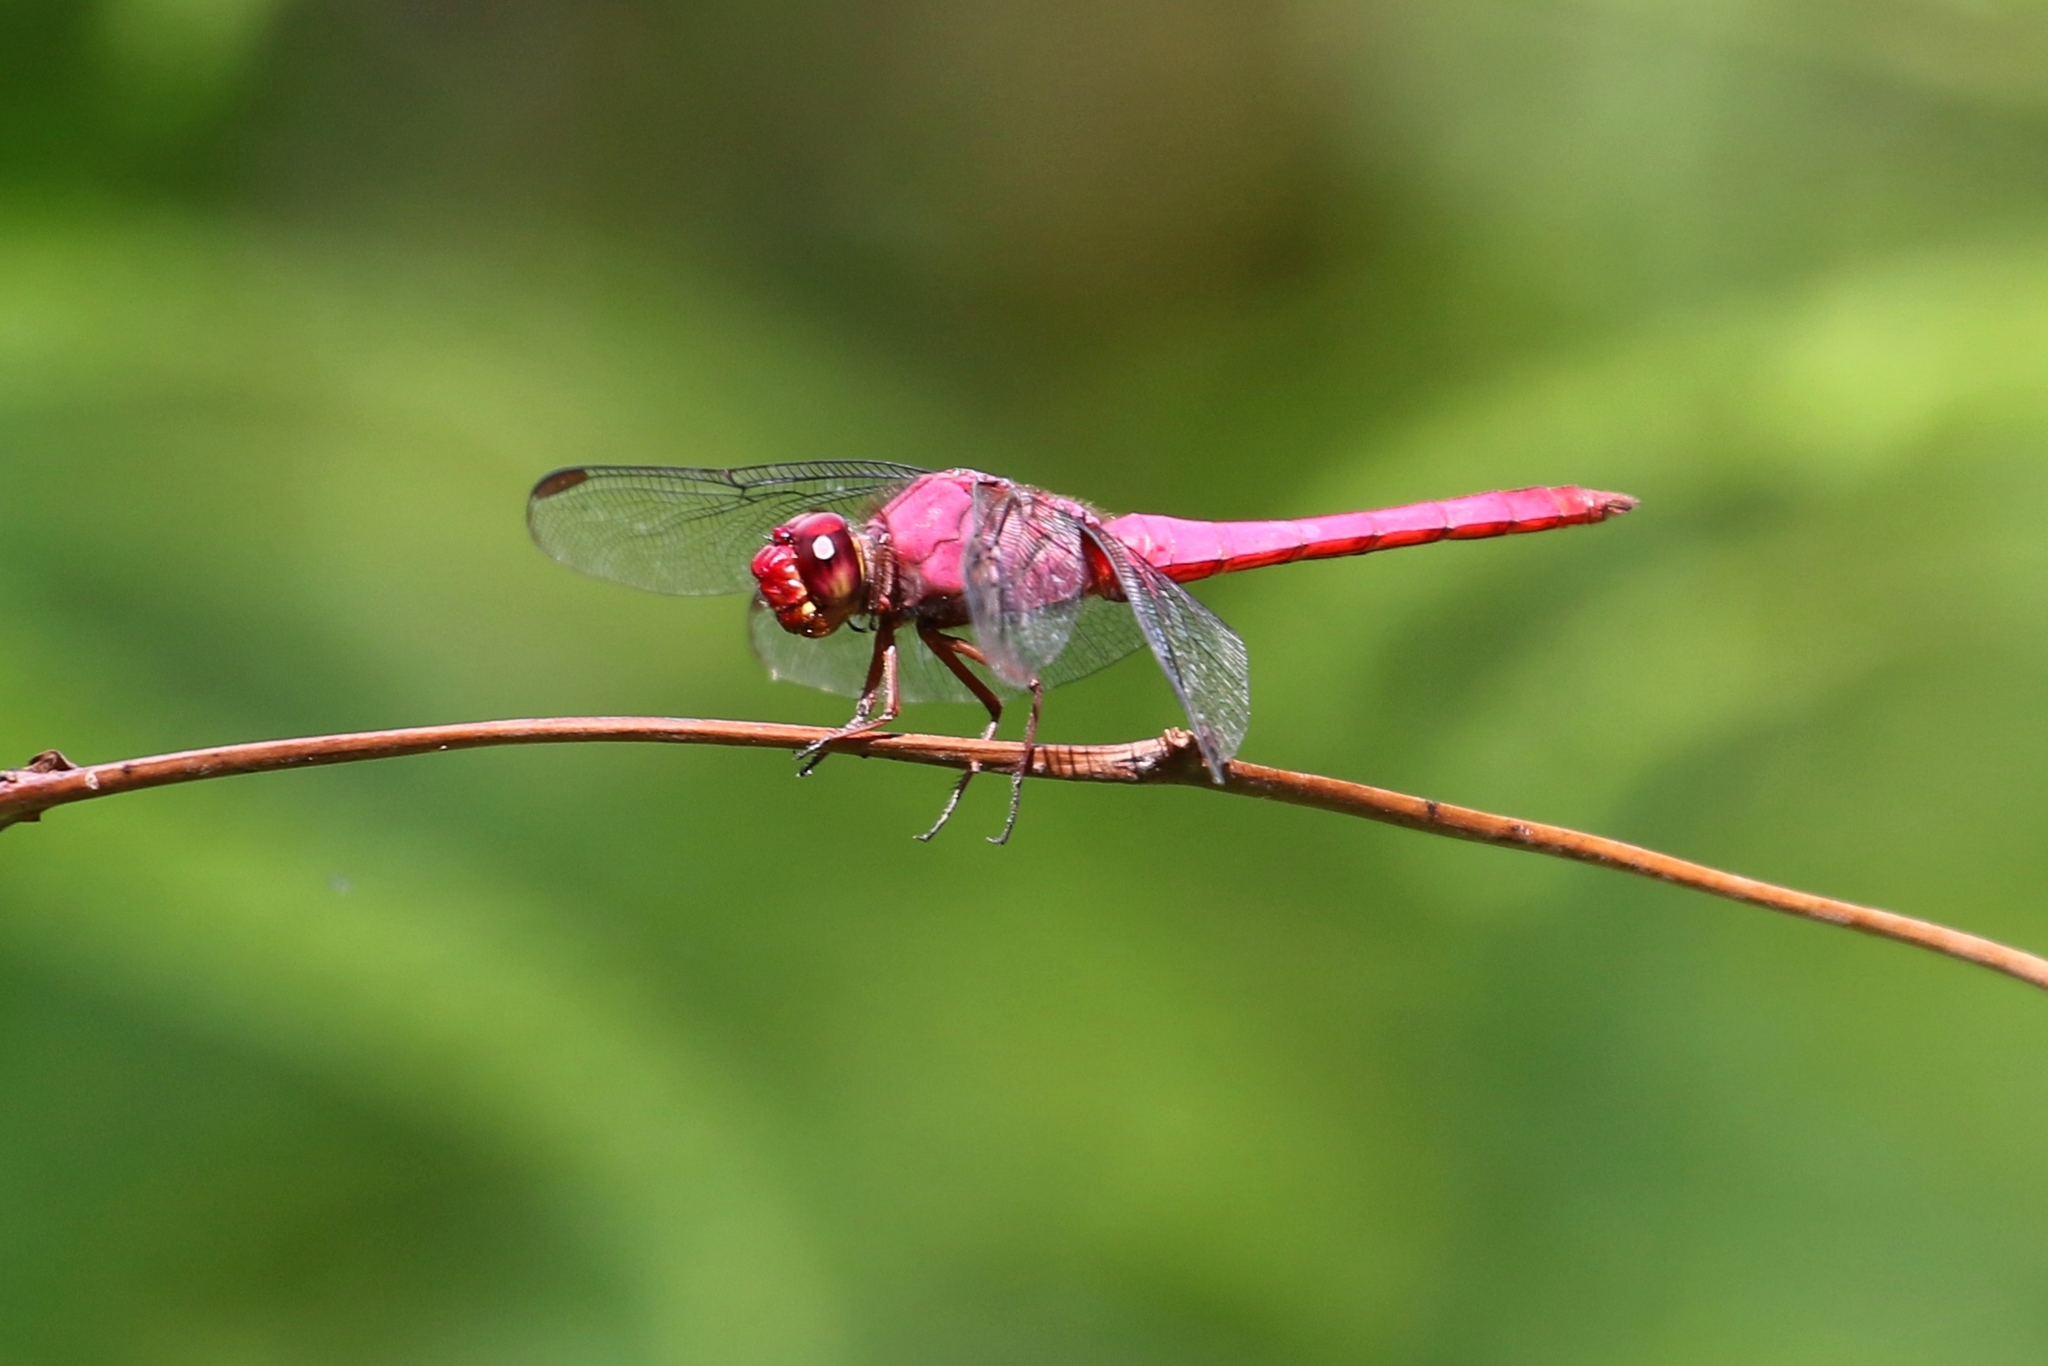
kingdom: Animalia
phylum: Arthropoda
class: Insecta
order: Odonata
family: Libellulidae
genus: Orthemis
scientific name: Orthemis discolor
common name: Carmine skimmer
